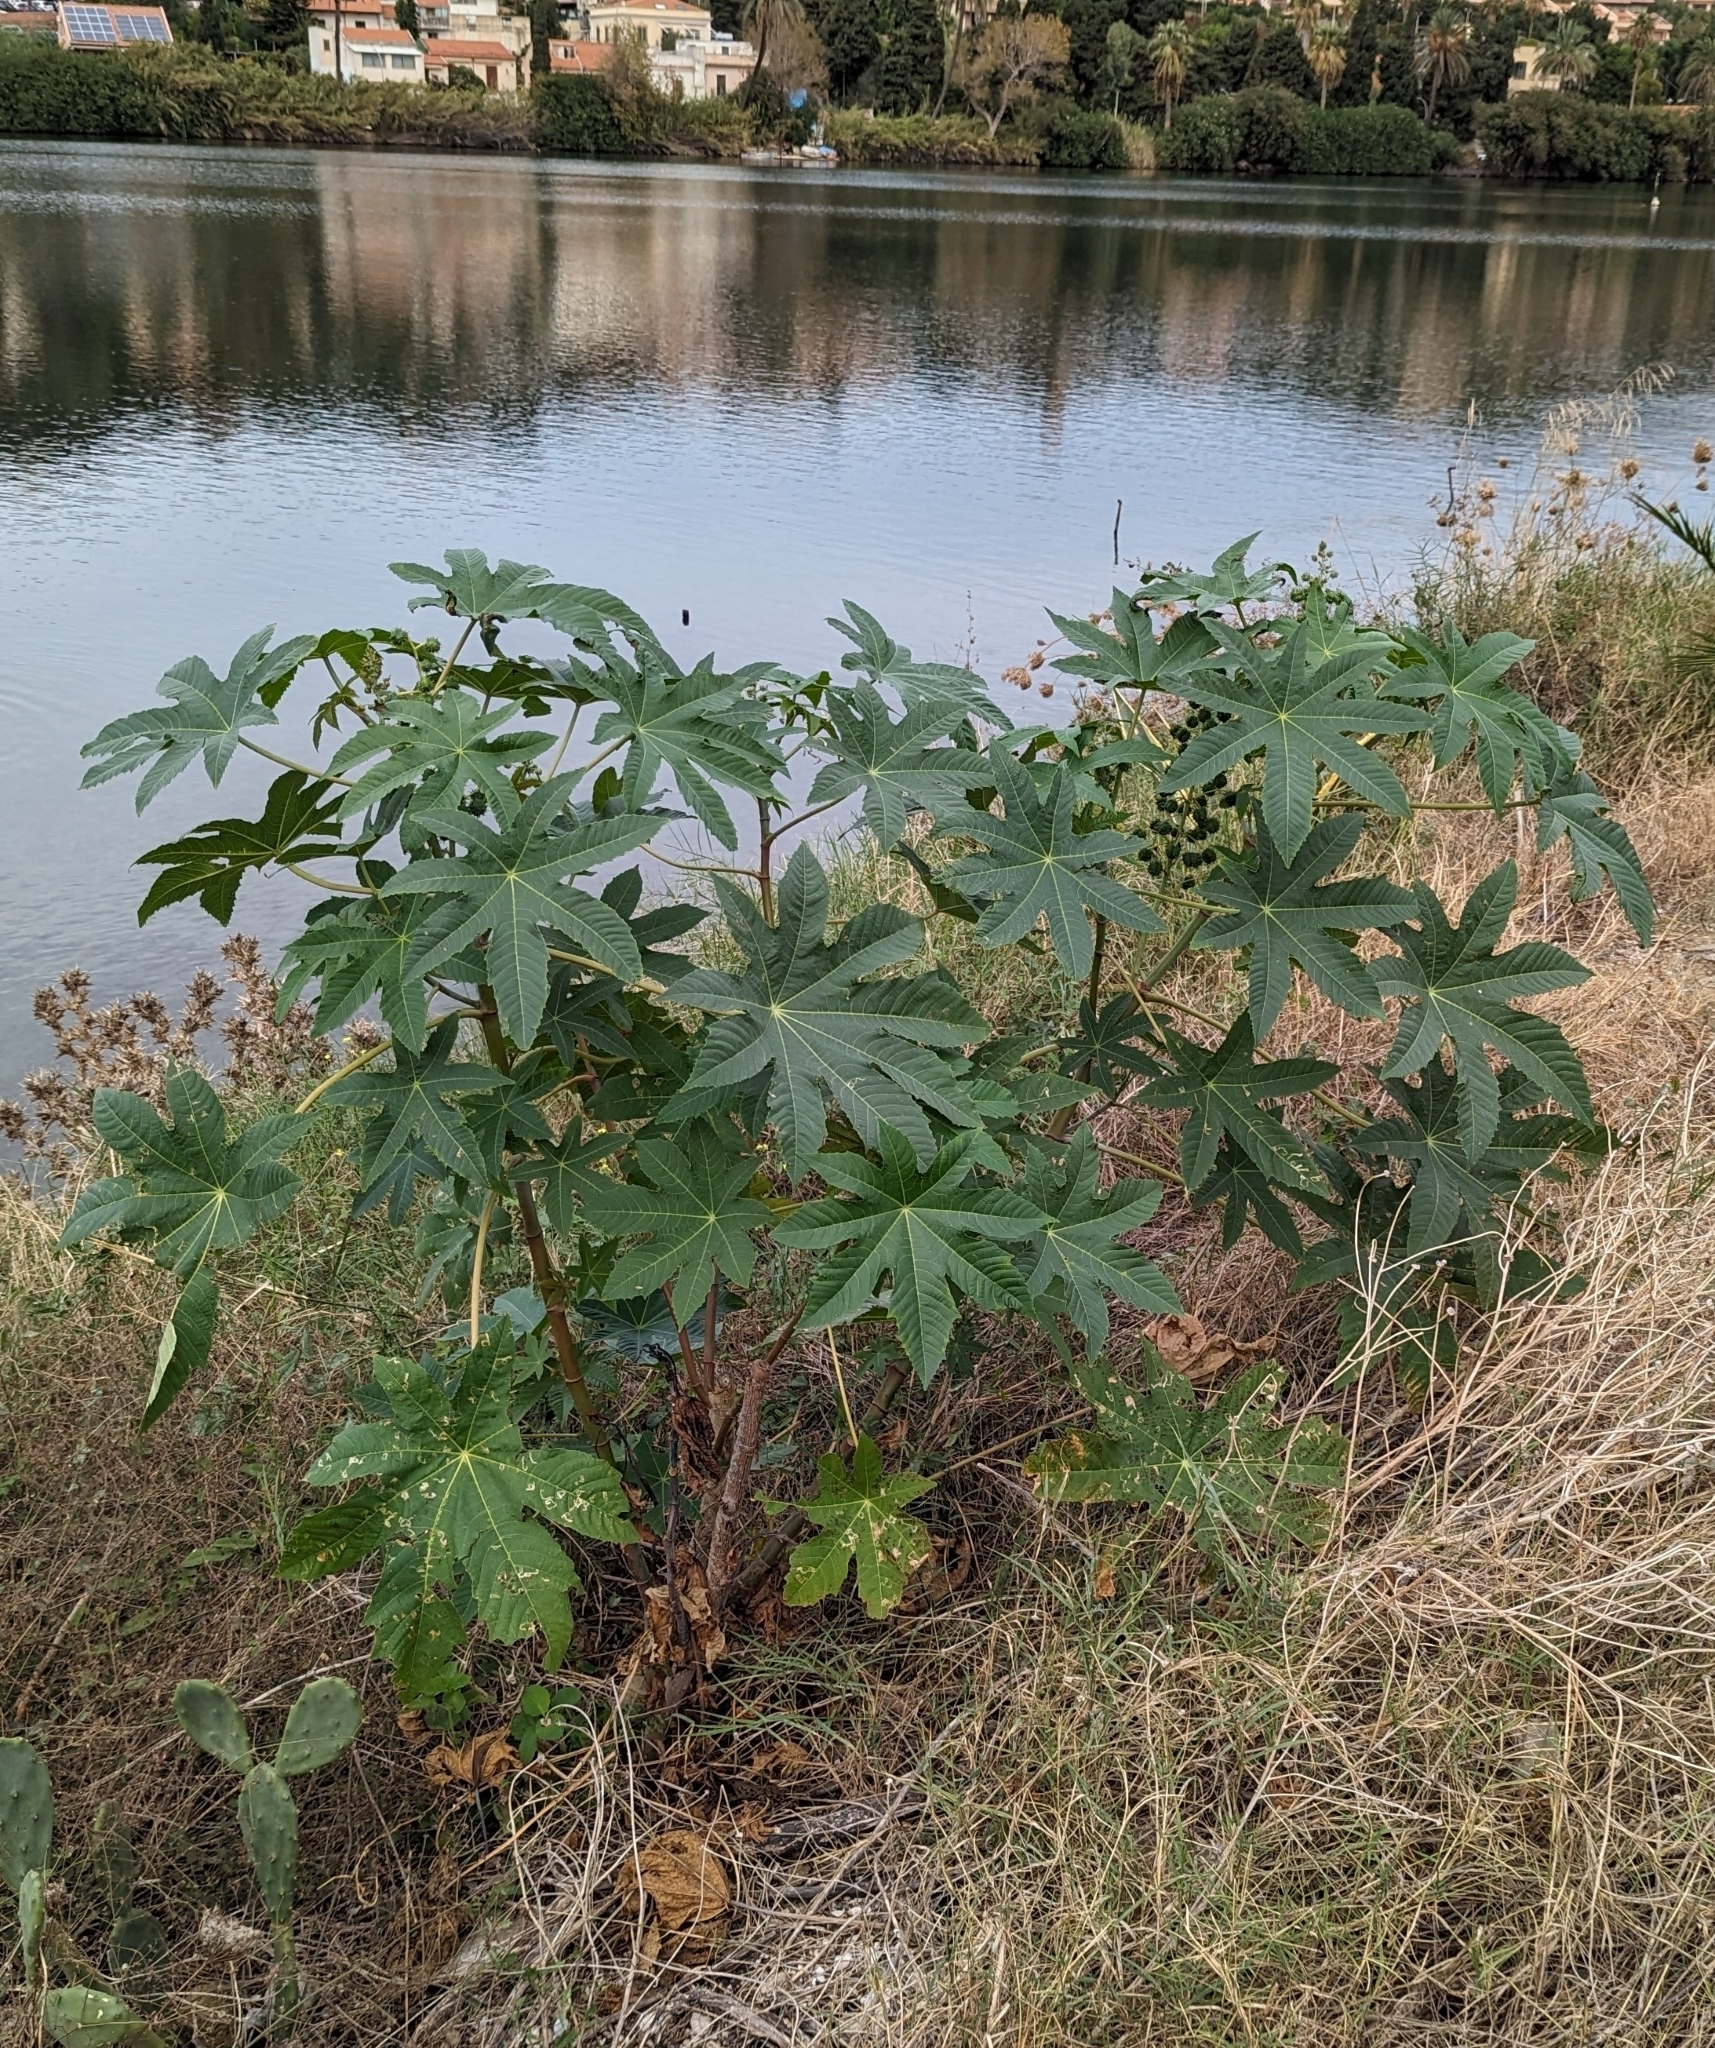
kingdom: Plantae
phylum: Tracheophyta
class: Magnoliopsida
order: Malpighiales
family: Euphorbiaceae
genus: Ricinus
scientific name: Ricinus communis
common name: Castor-oil-plant
